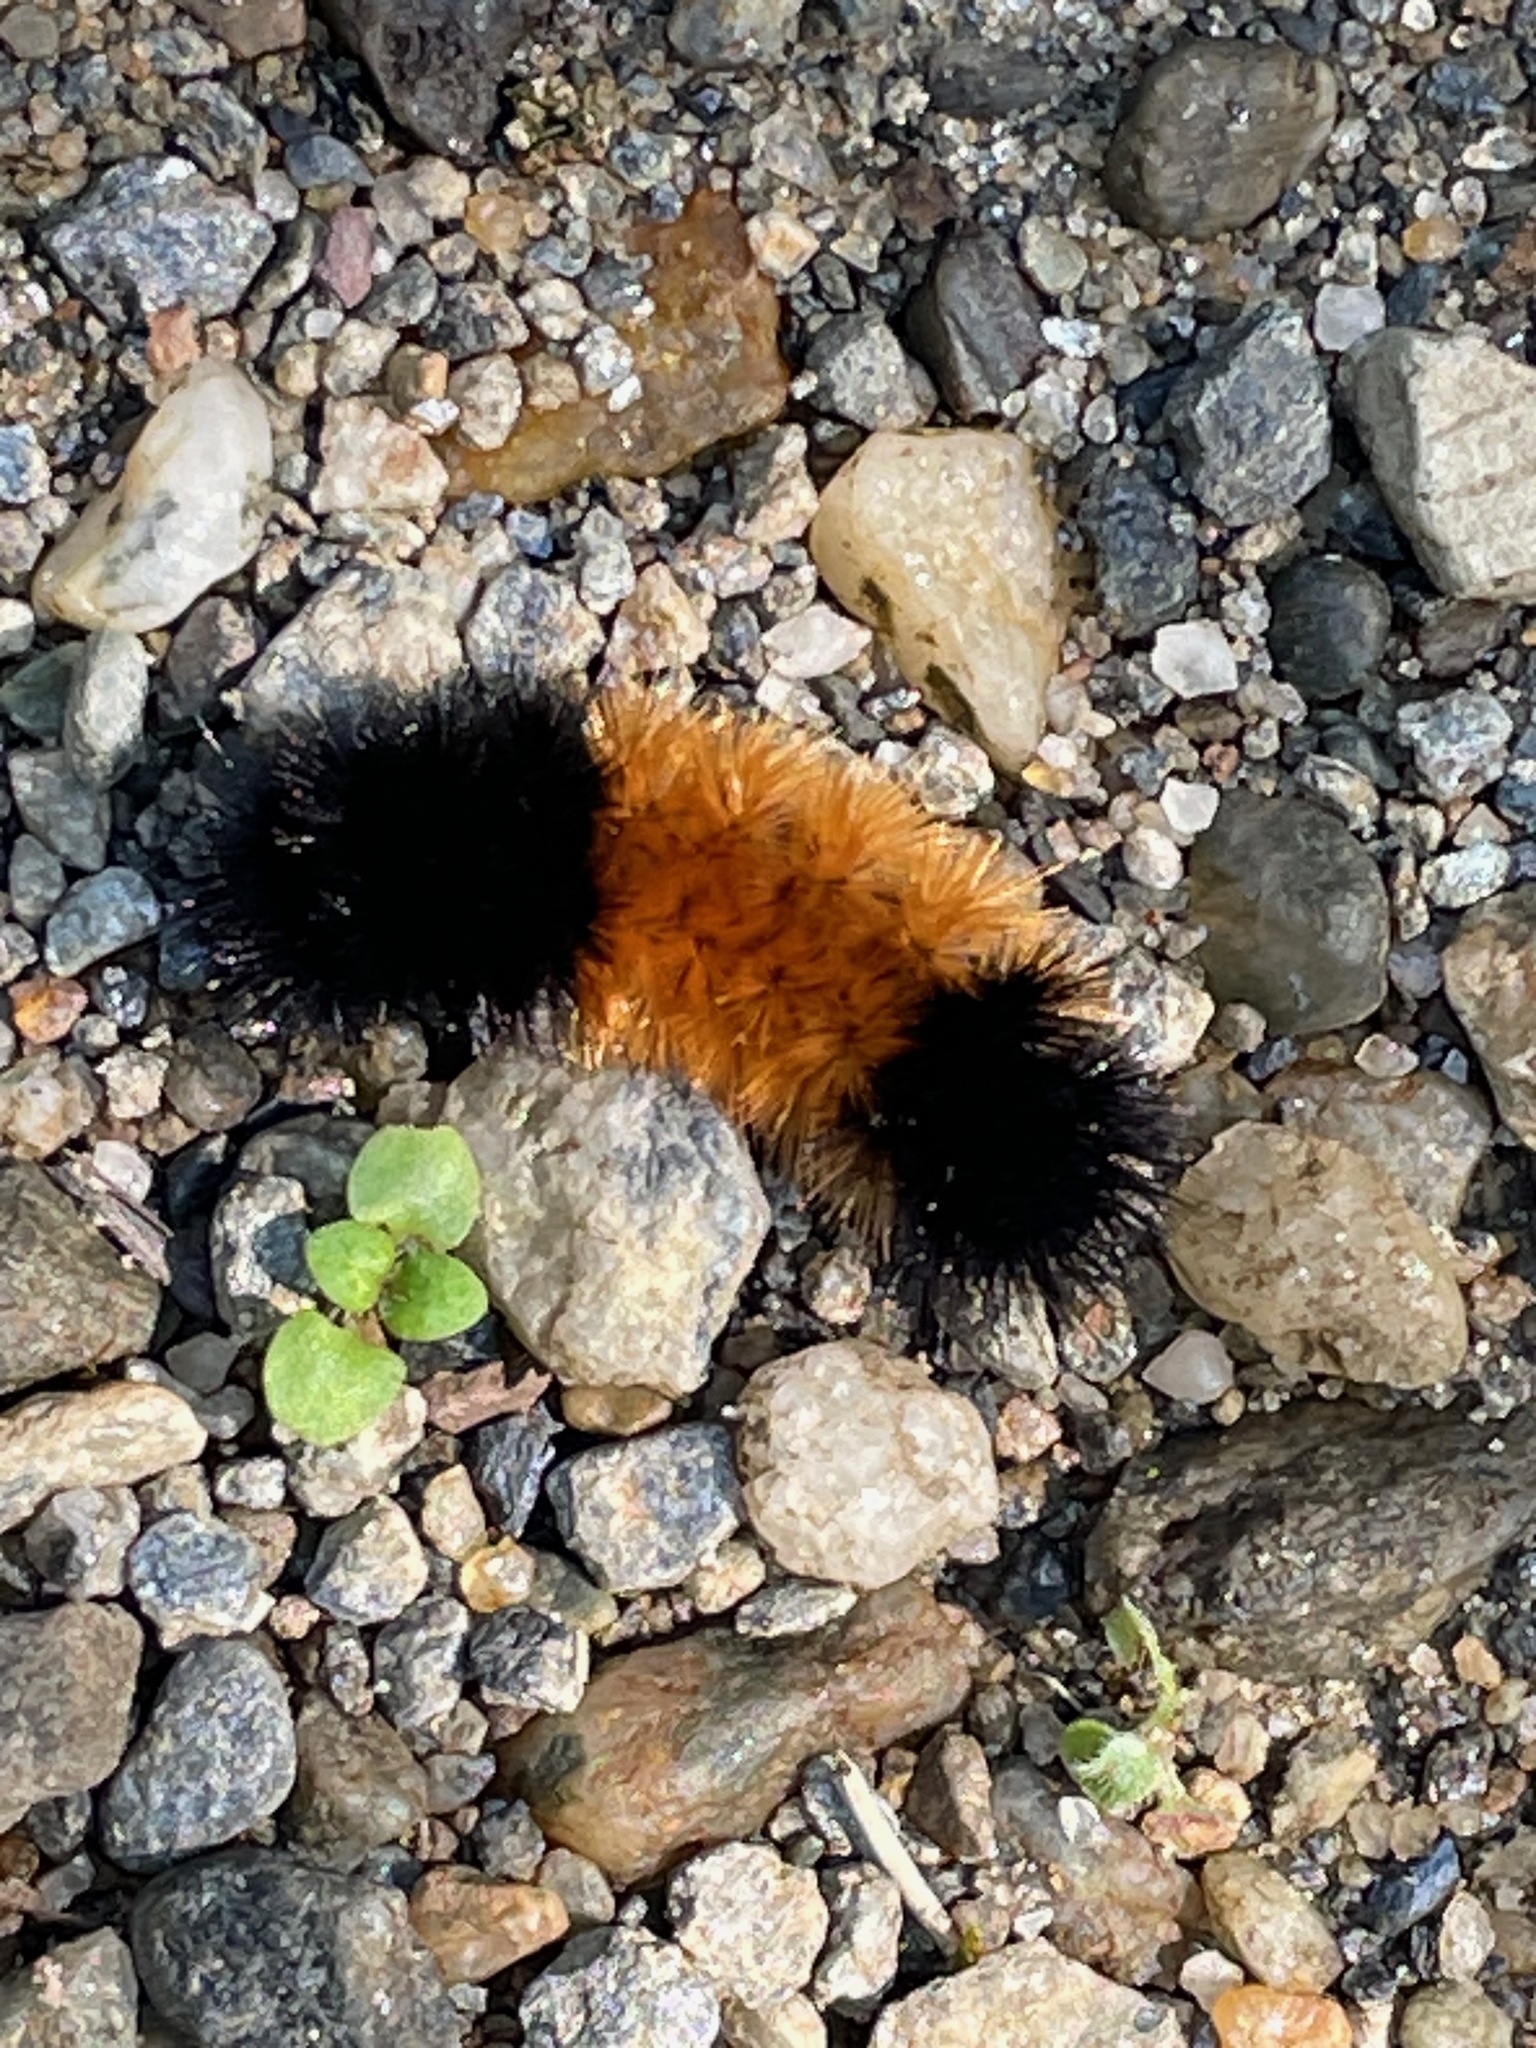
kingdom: Animalia
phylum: Arthropoda
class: Insecta
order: Lepidoptera
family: Erebidae
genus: Pyrrharctia
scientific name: Pyrrharctia isabella
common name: Isabella tiger moth
